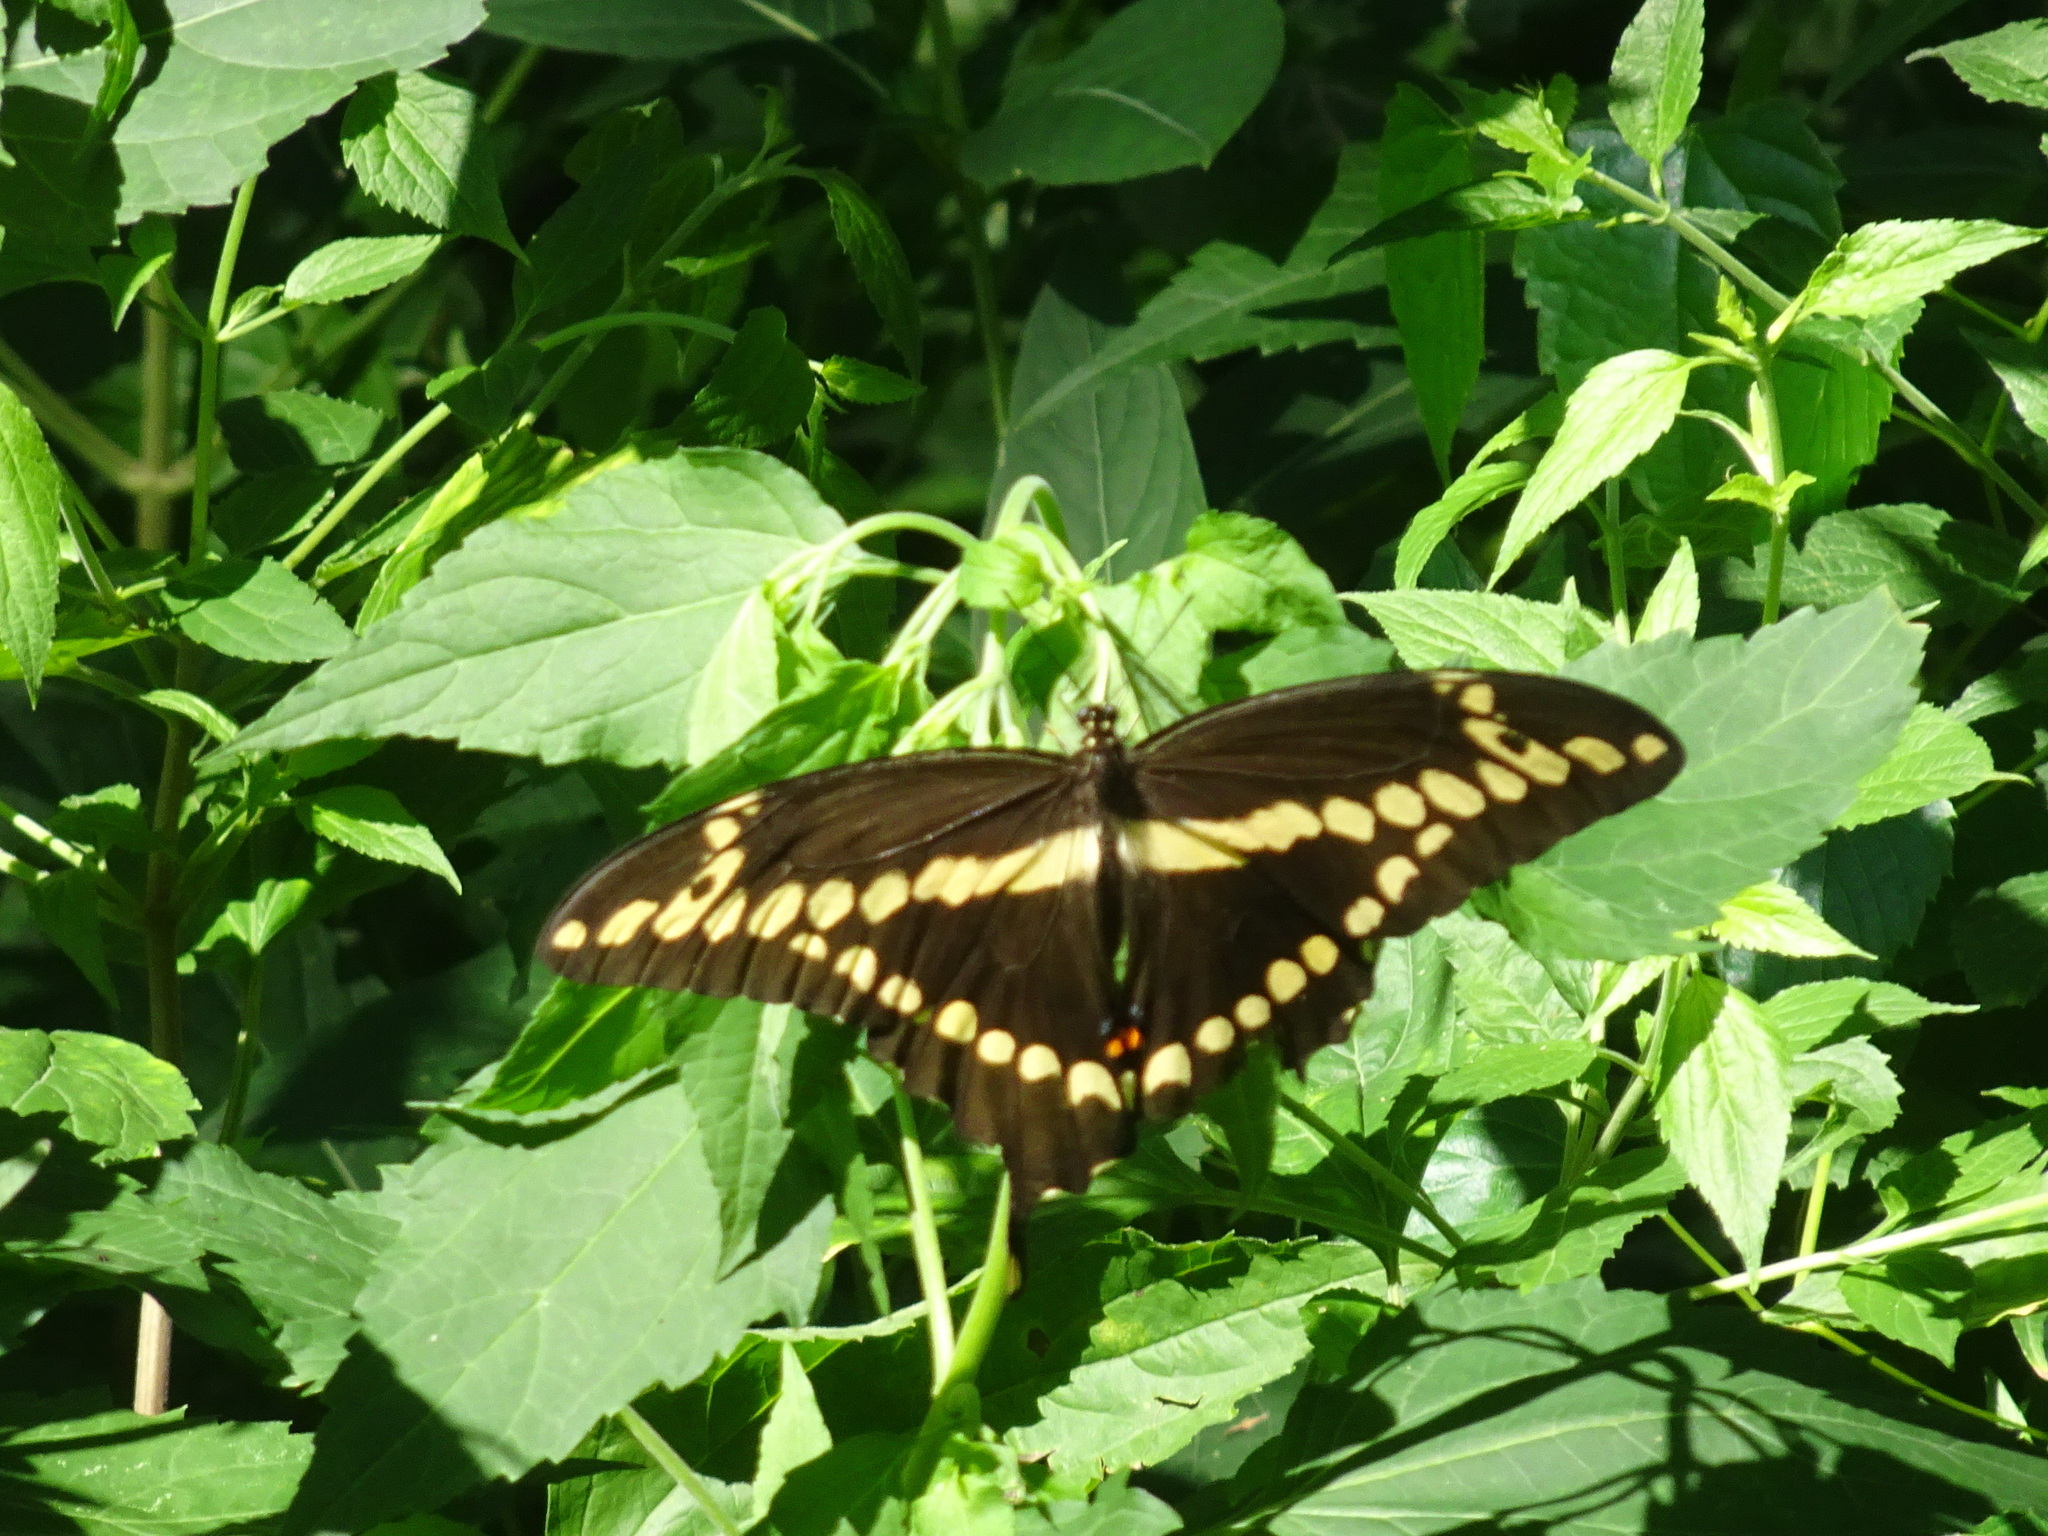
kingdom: Animalia
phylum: Arthropoda
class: Insecta
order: Lepidoptera
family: Papilionidae
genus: Papilio
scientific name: Papilio cresphontes
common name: Giant swallowtail
